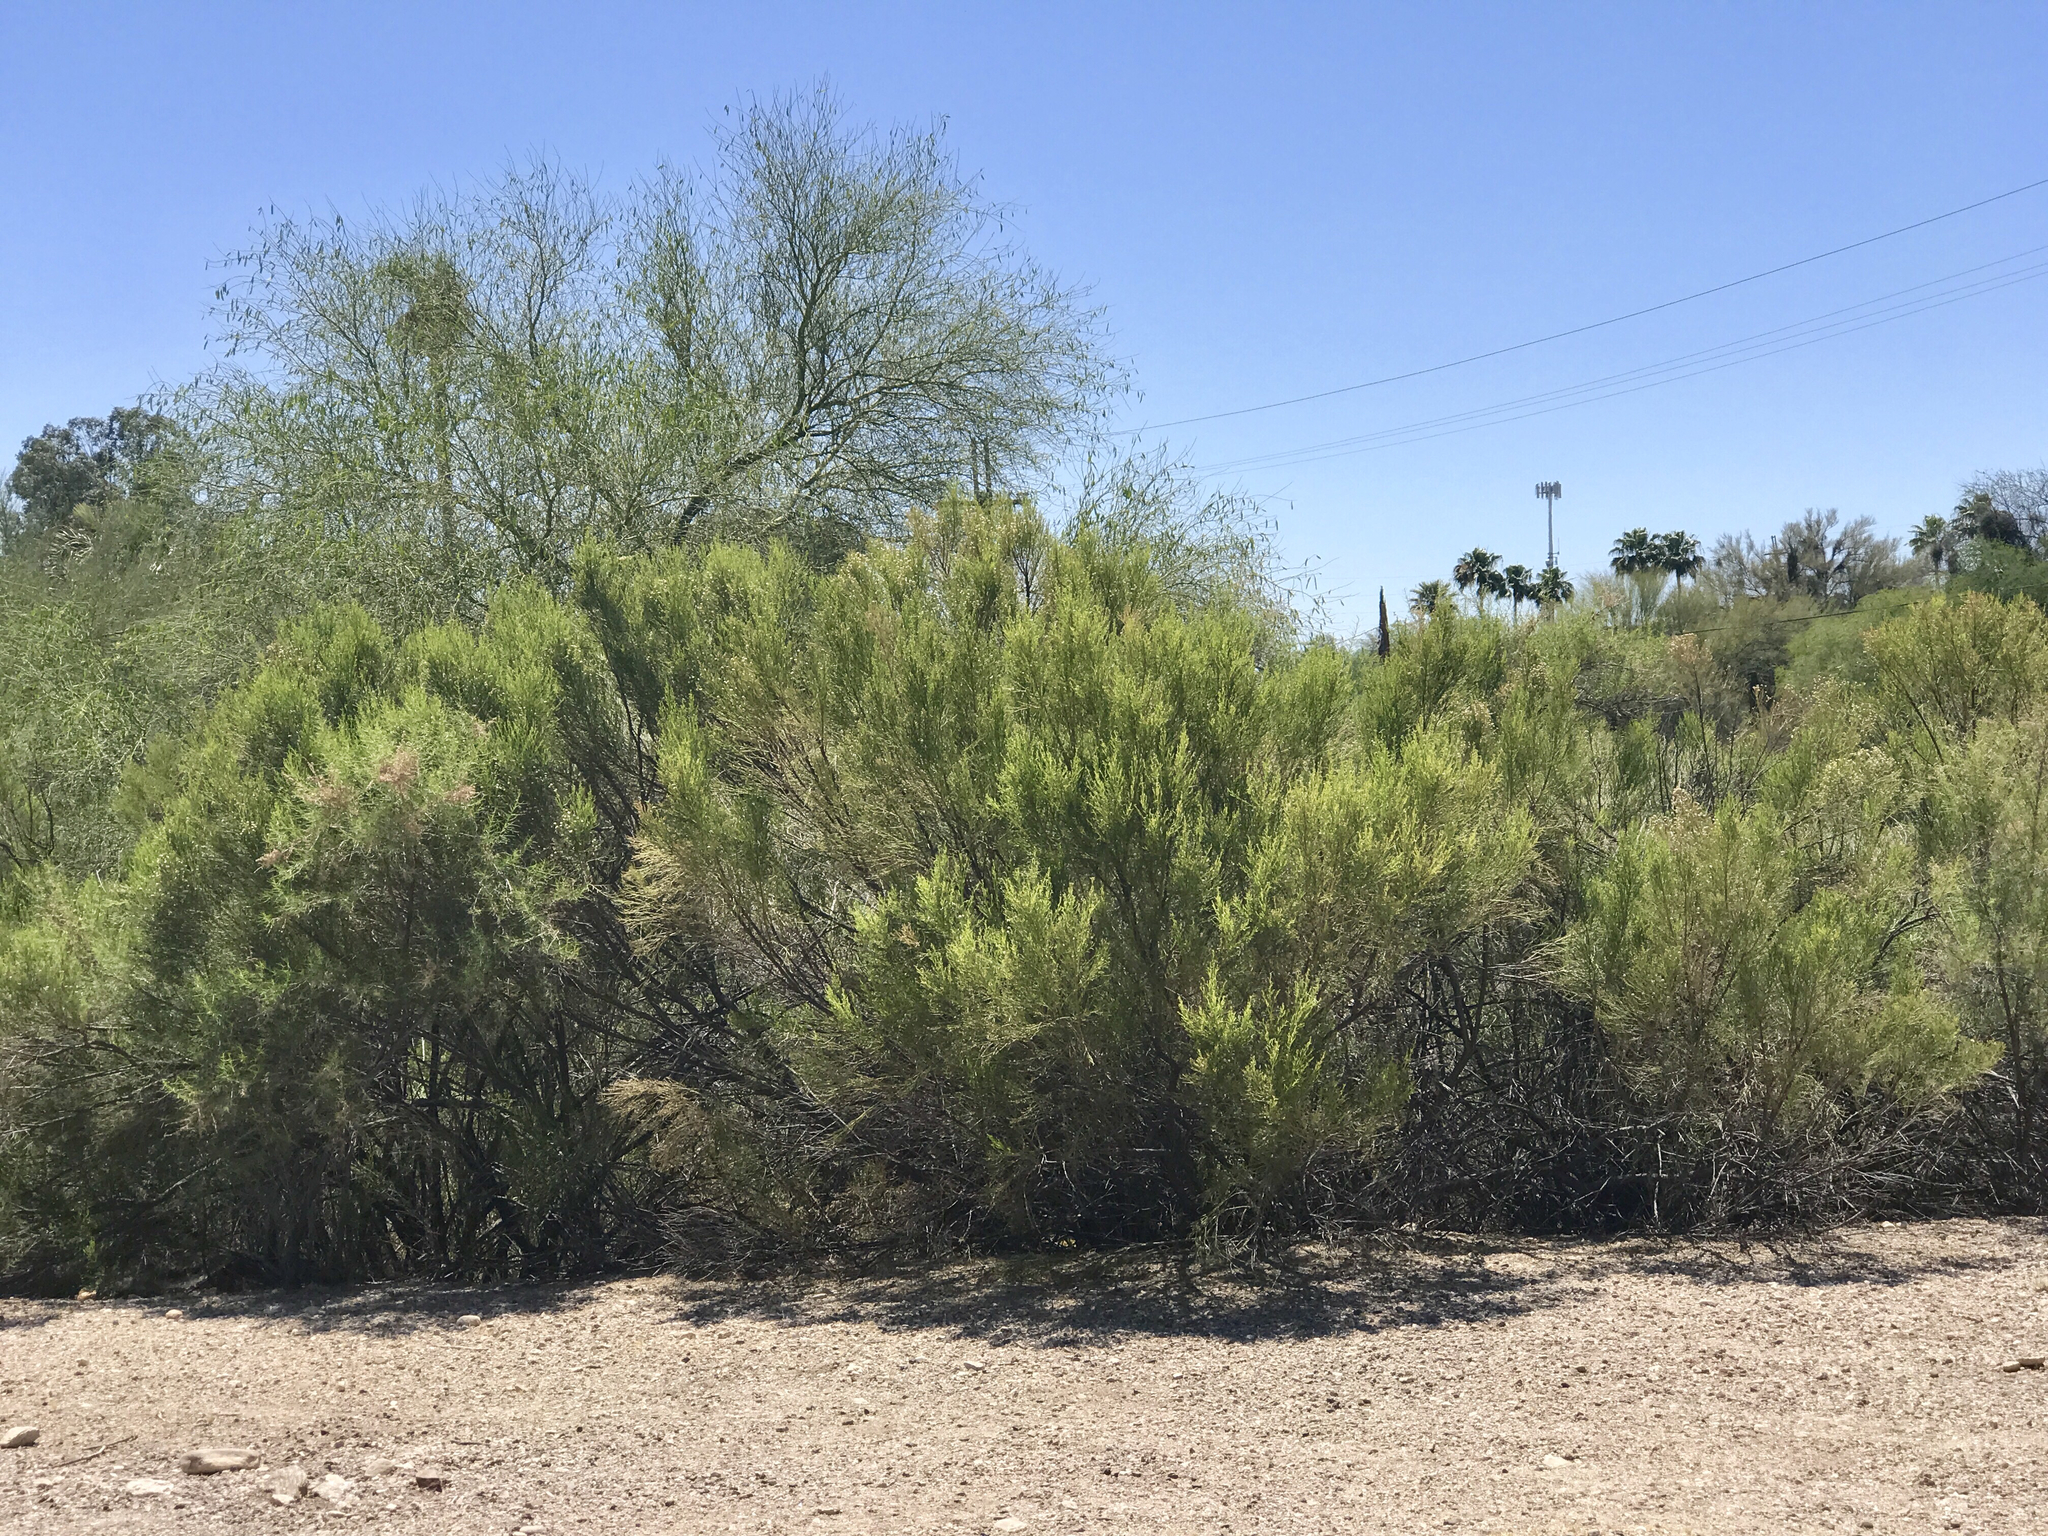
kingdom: Plantae
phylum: Tracheophyta
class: Magnoliopsida
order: Asterales
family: Asteraceae
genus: Baccharis
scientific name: Baccharis sarothroides
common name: Desert-broom
